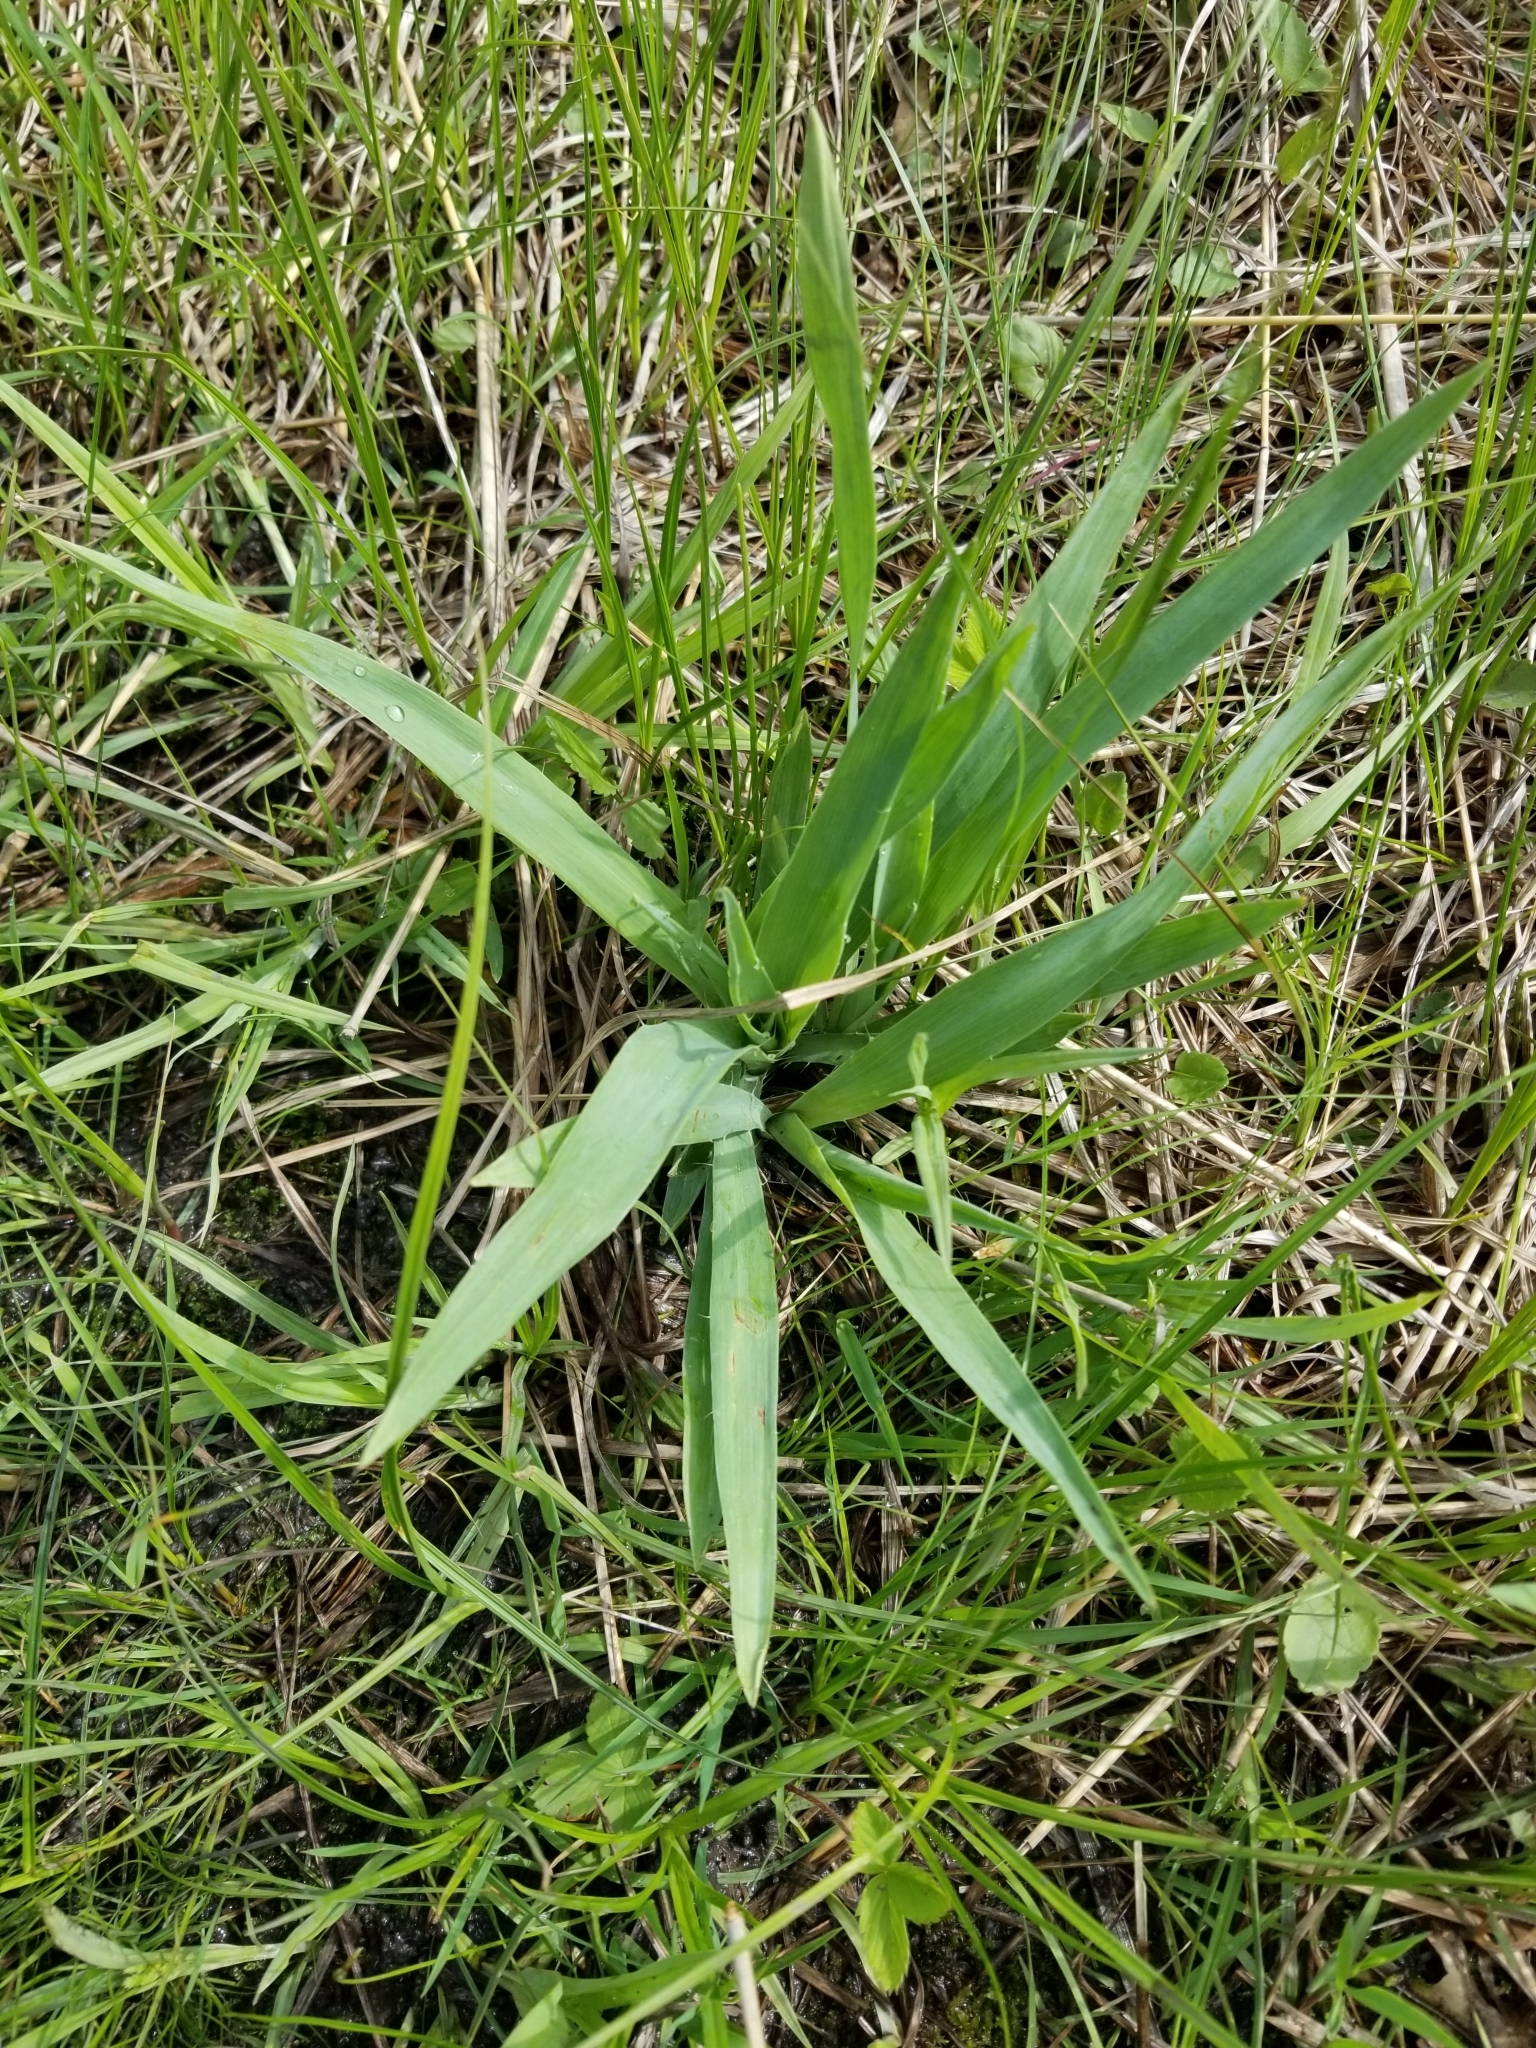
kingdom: Plantae
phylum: Tracheophyta
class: Magnoliopsida
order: Apiales
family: Apiaceae
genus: Eryngium
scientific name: Eryngium yuccifolium
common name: Button eryngo
